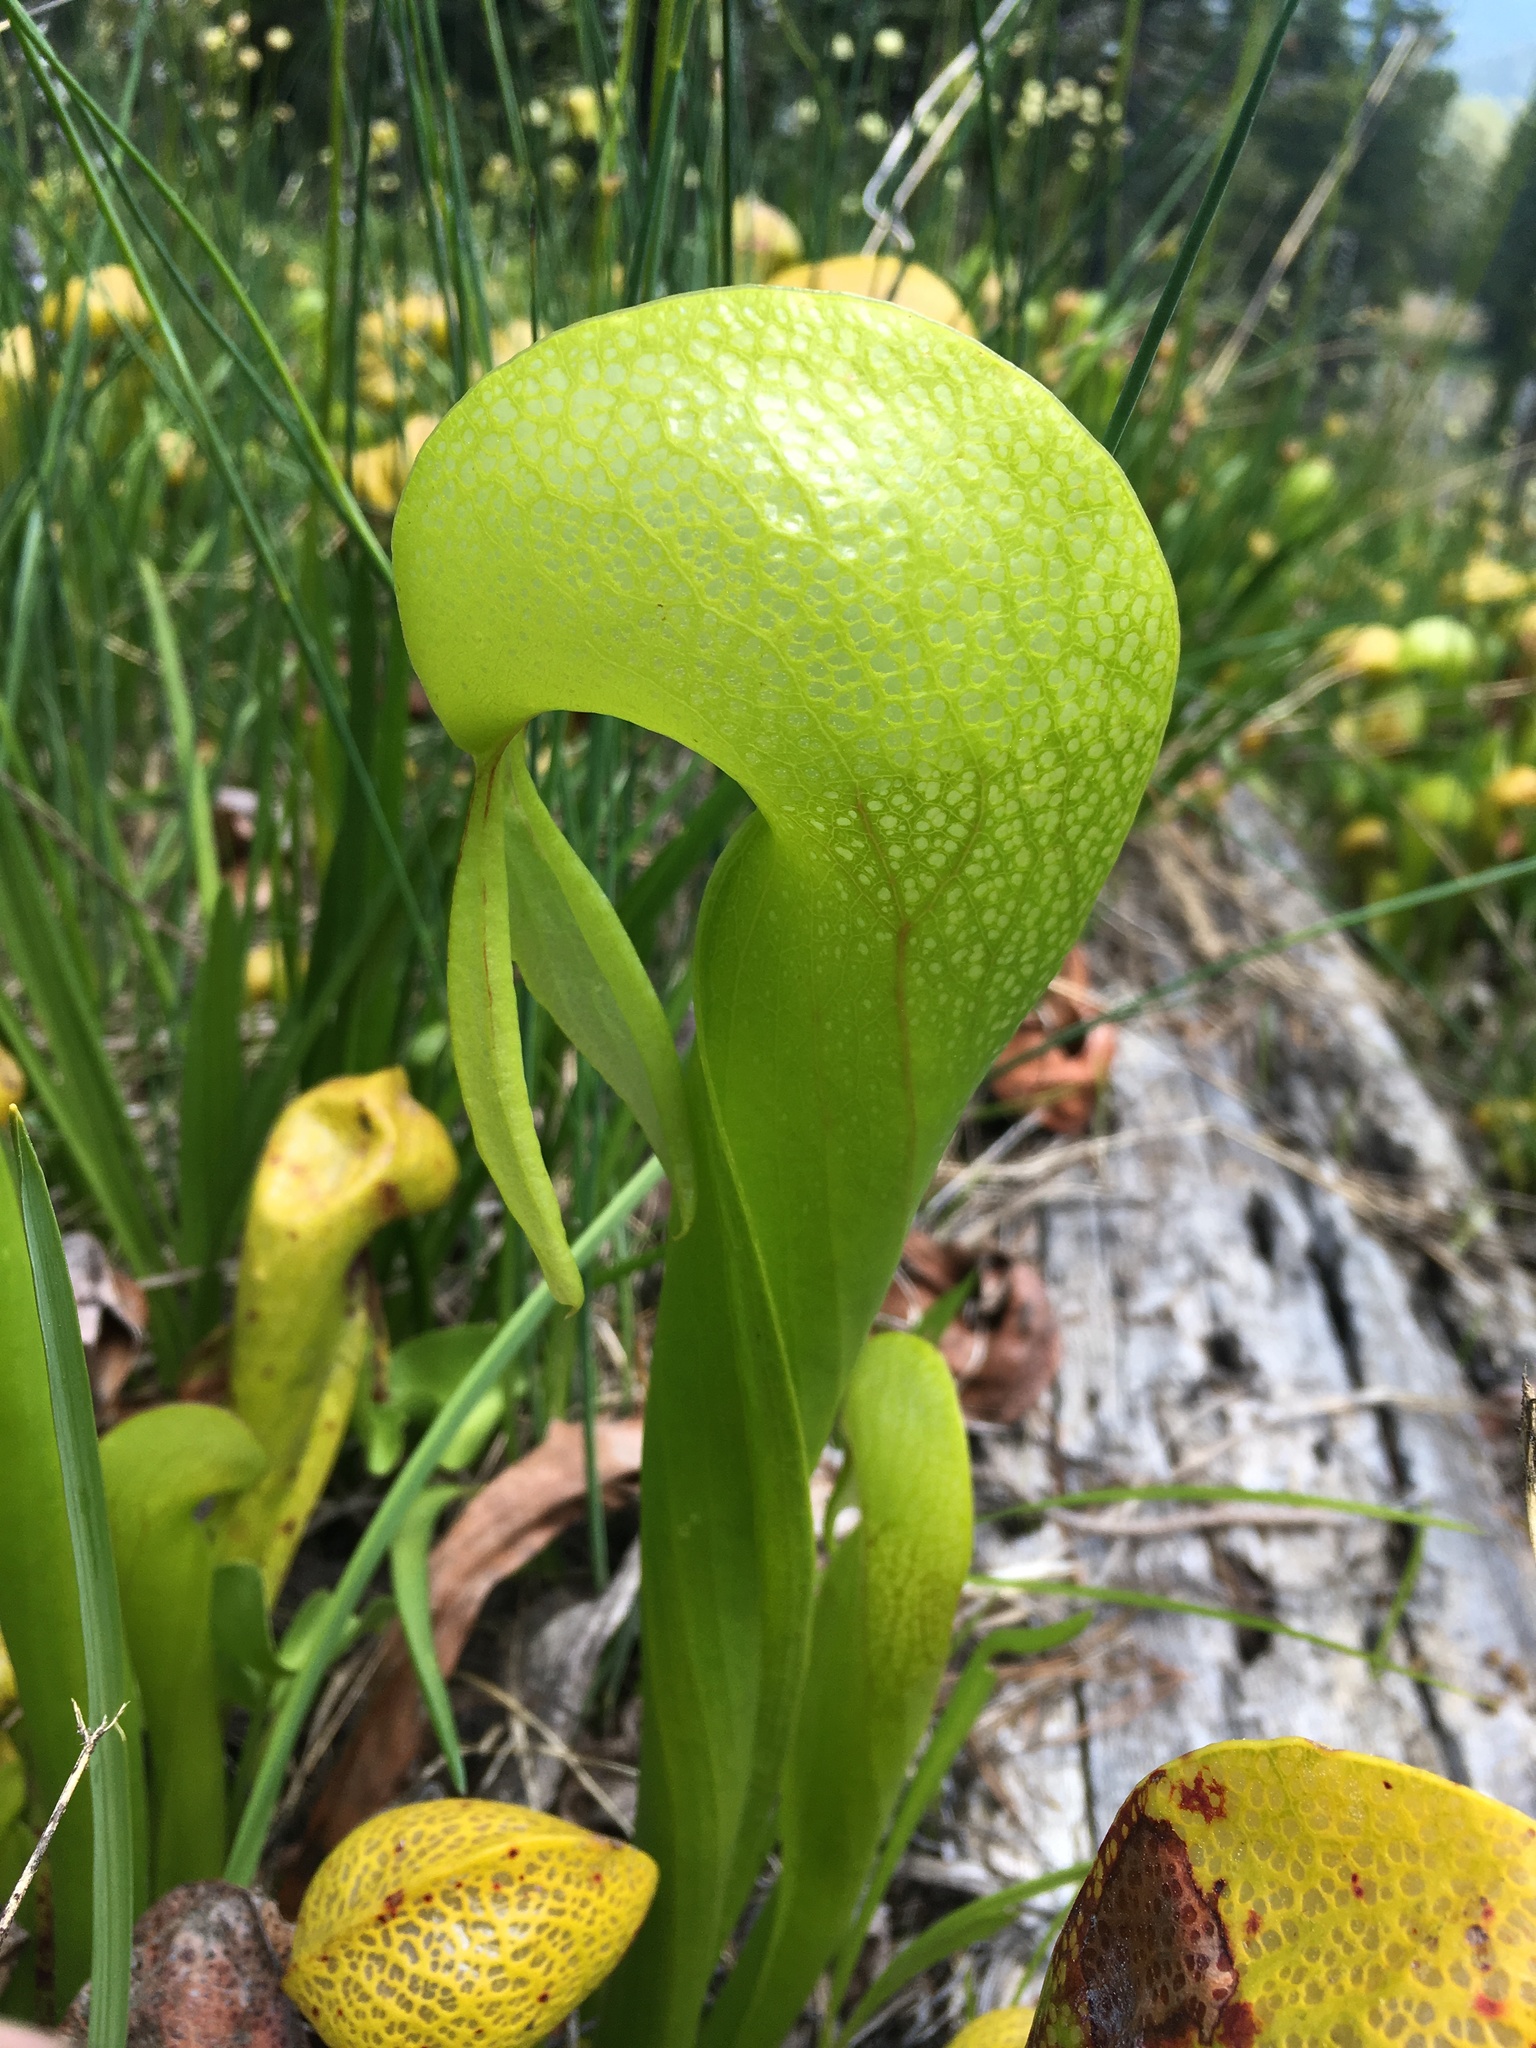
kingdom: Plantae
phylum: Tracheophyta
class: Magnoliopsida
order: Ericales
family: Sarraceniaceae
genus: Darlingtonia
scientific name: Darlingtonia californica
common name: California pitcher plant
